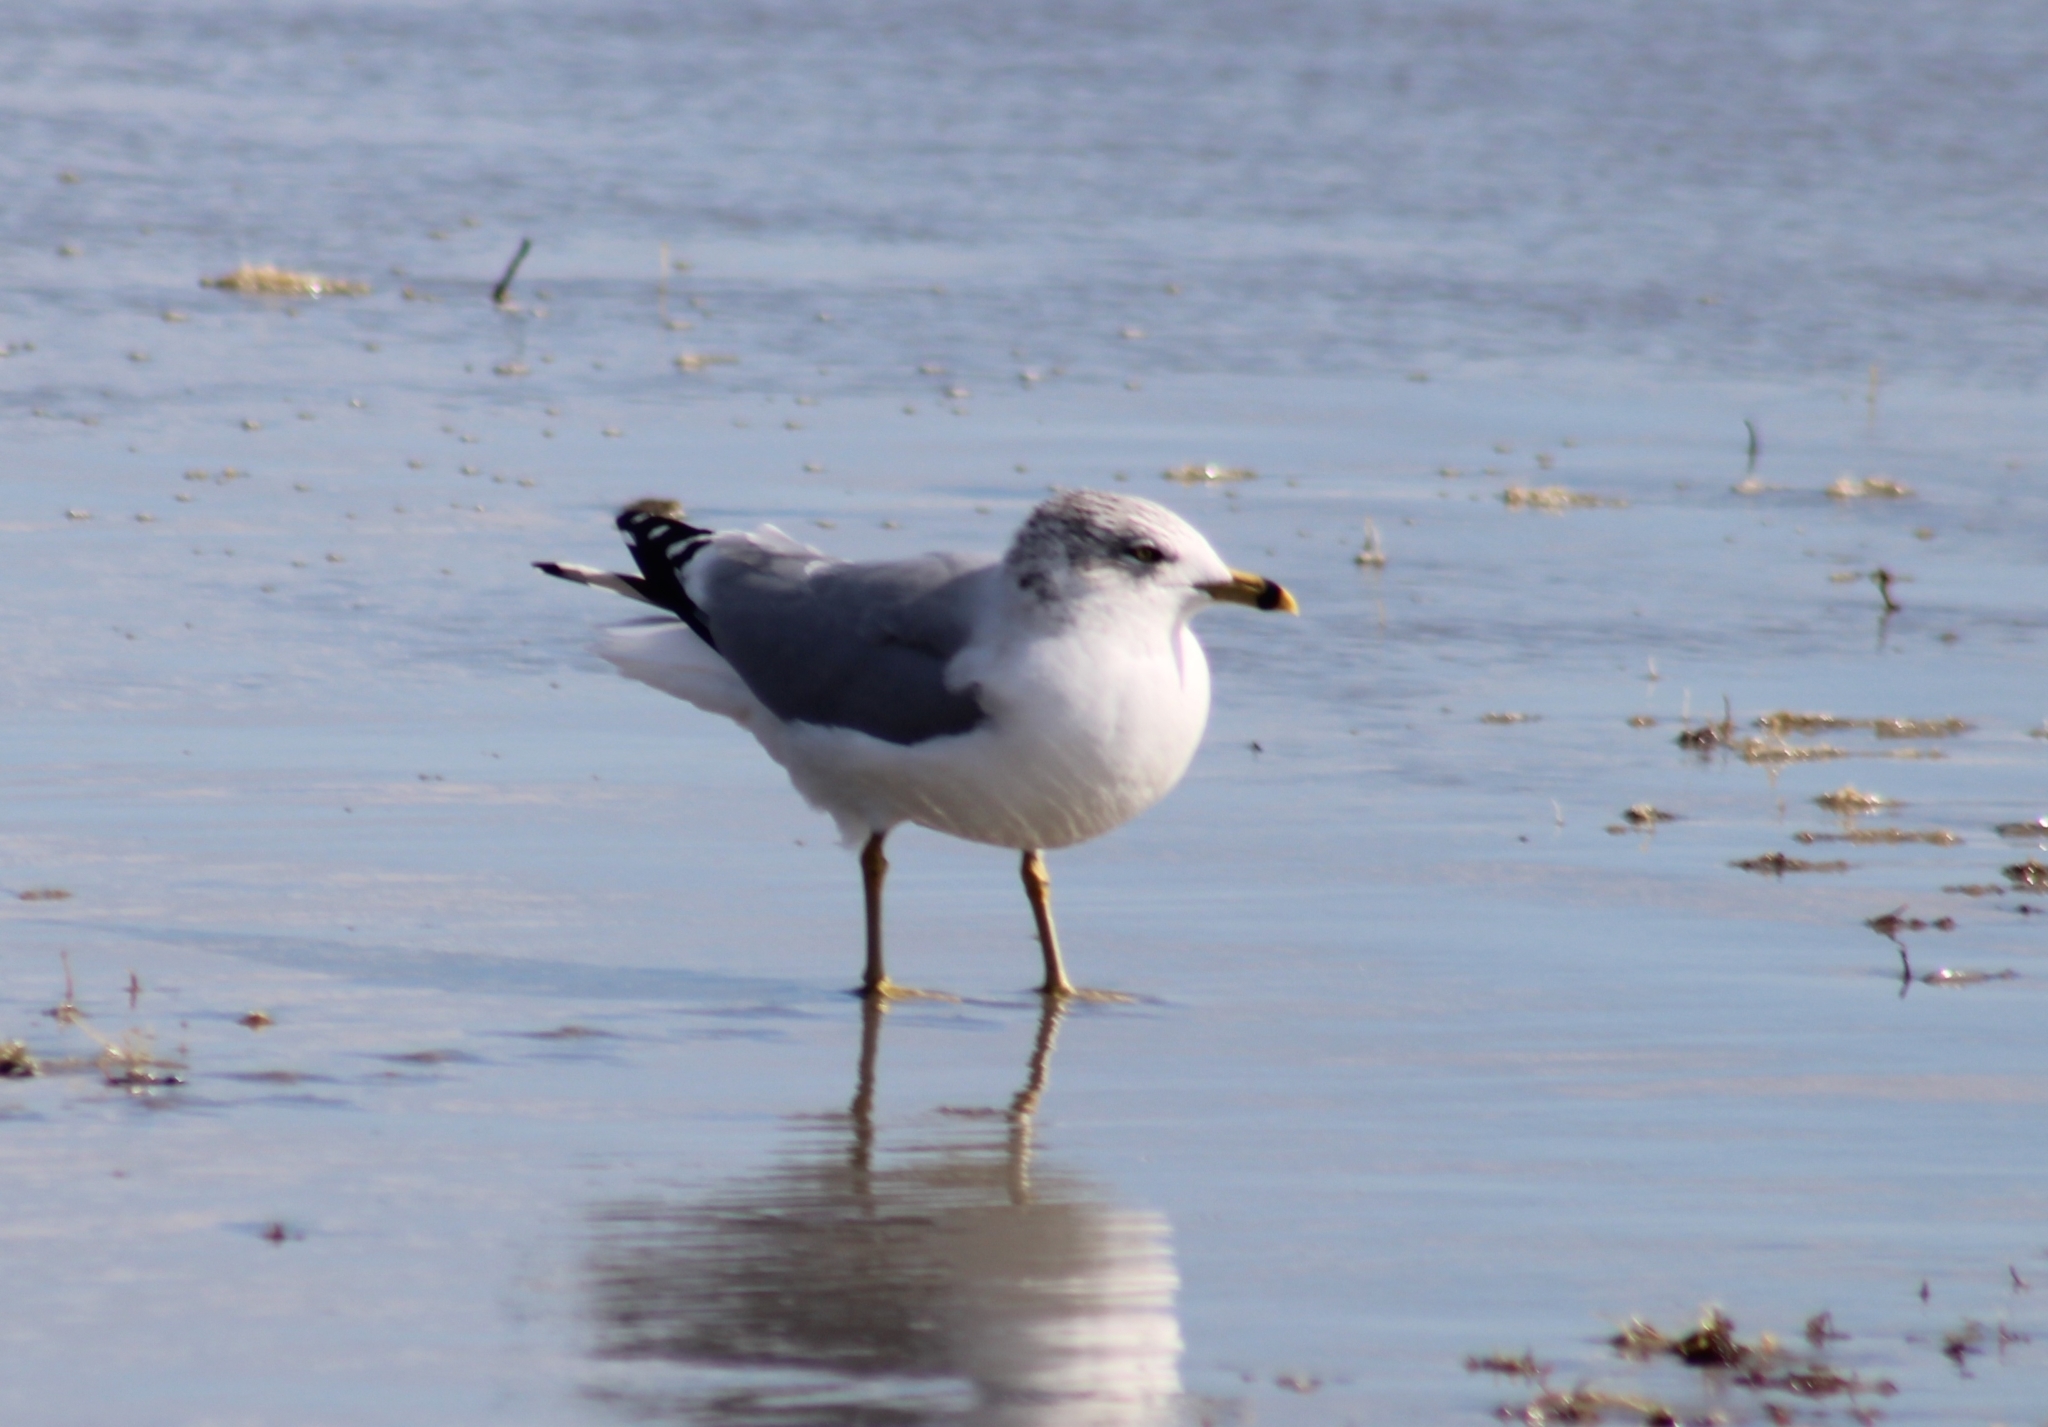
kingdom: Animalia
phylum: Chordata
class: Aves
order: Charadriiformes
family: Laridae
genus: Larus
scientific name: Larus delawarensis
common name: Ring-billed gull
